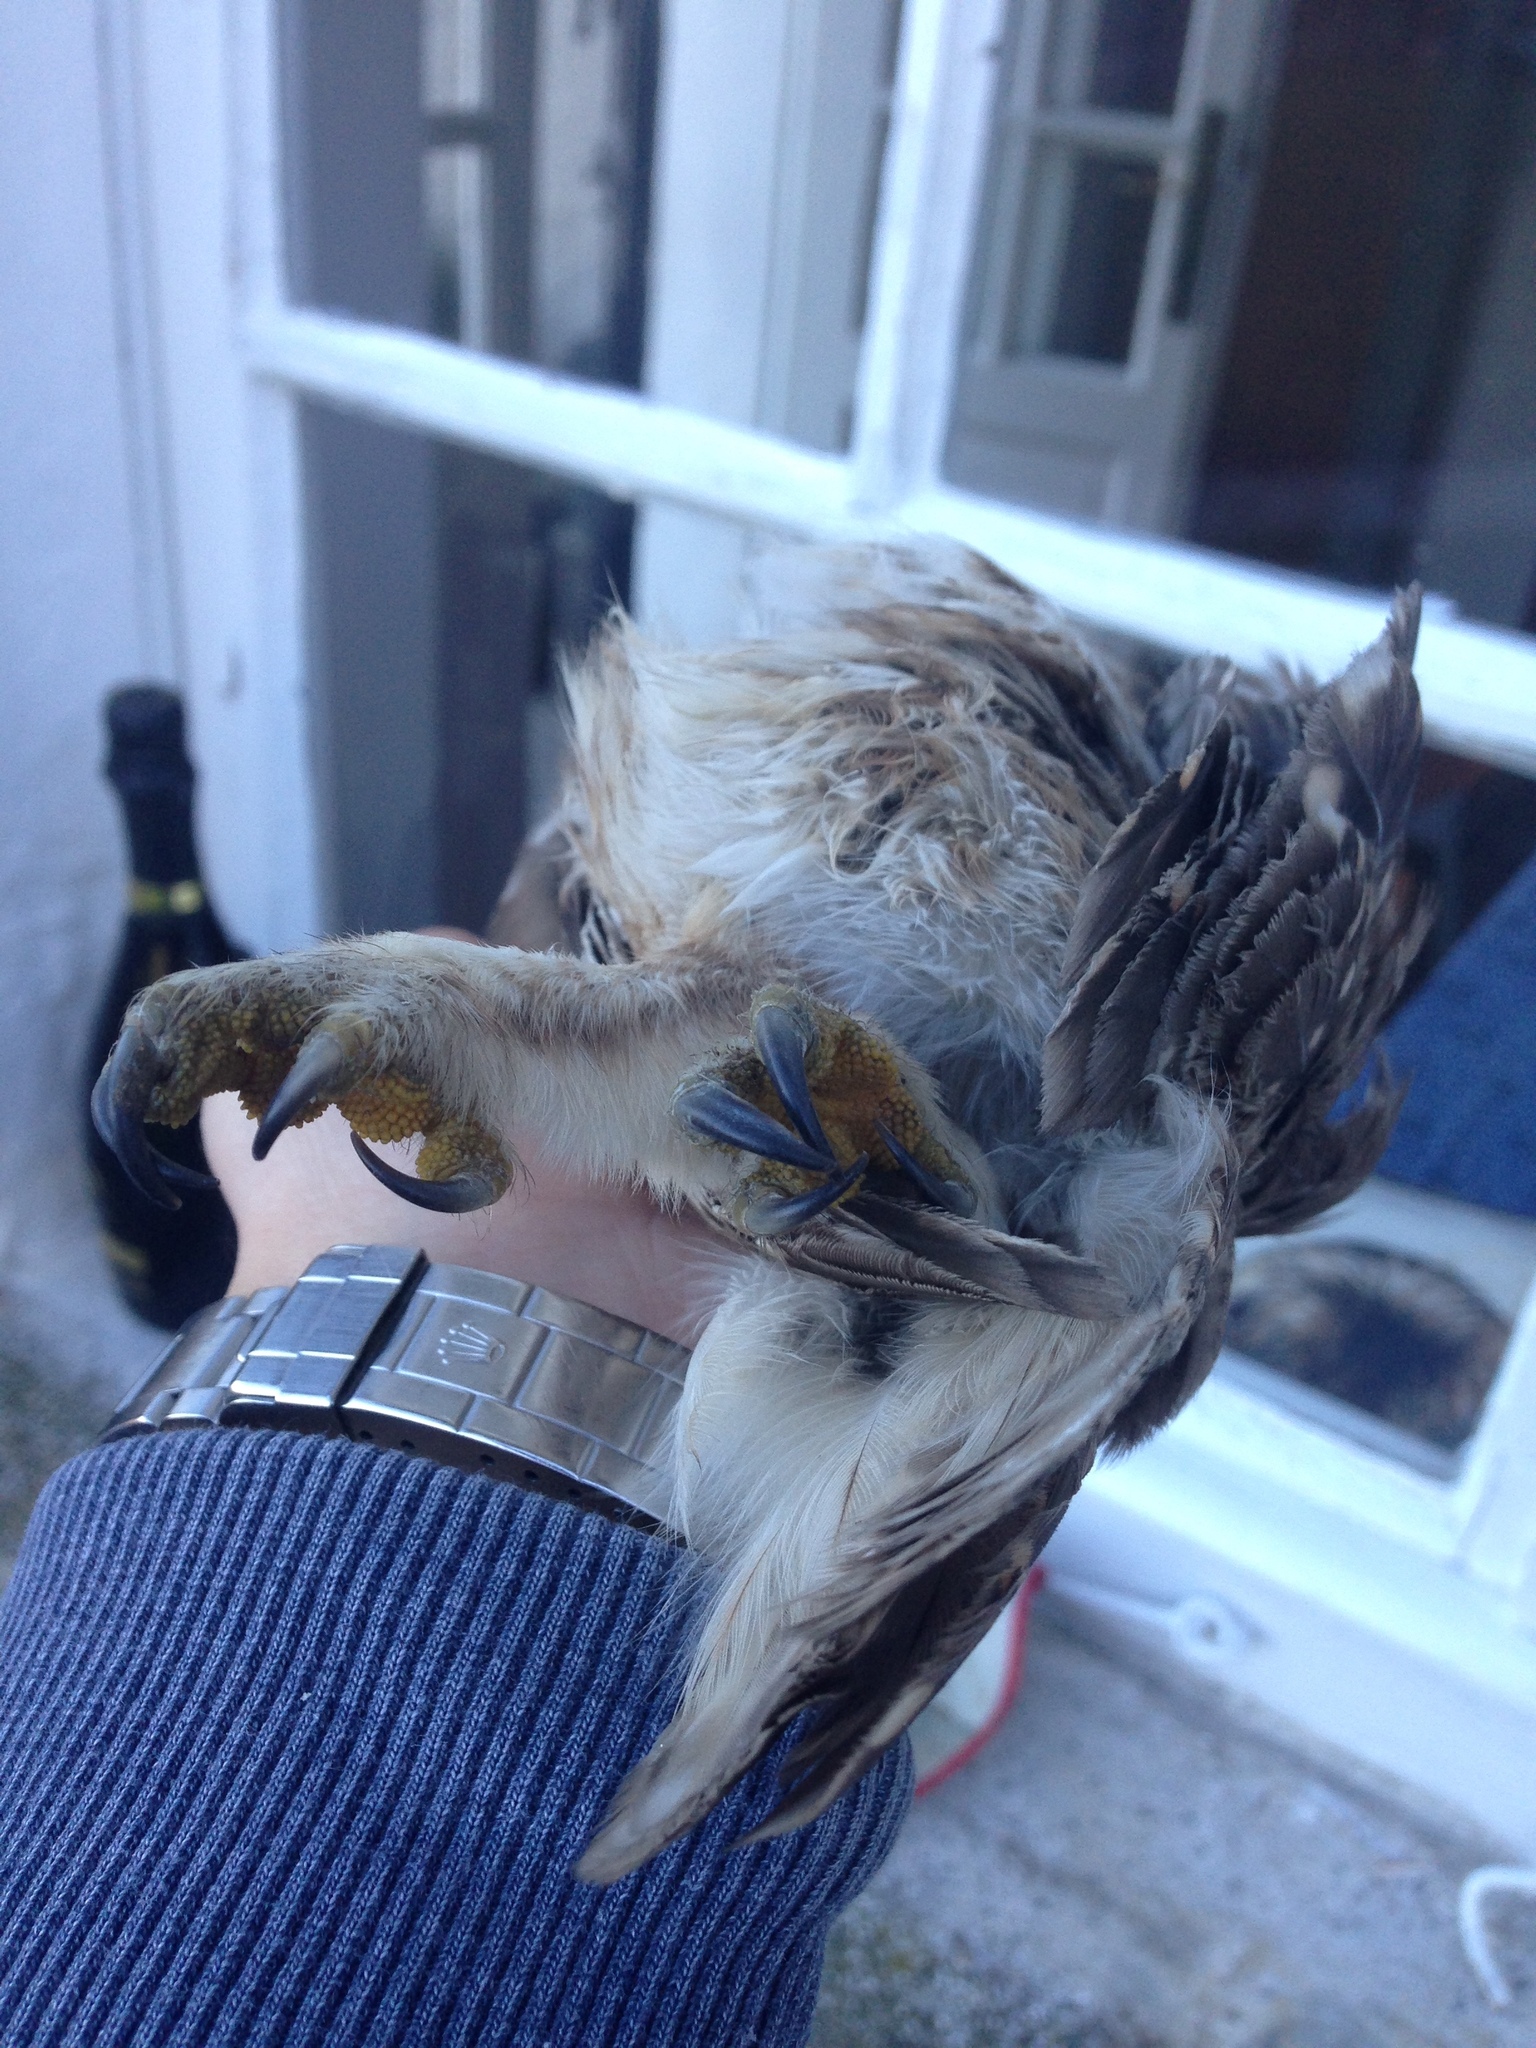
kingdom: Animalia
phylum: Chordata
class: Aves
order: Strigiformes
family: Strigidae
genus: Athene
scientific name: Athene noctua
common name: Little owl
